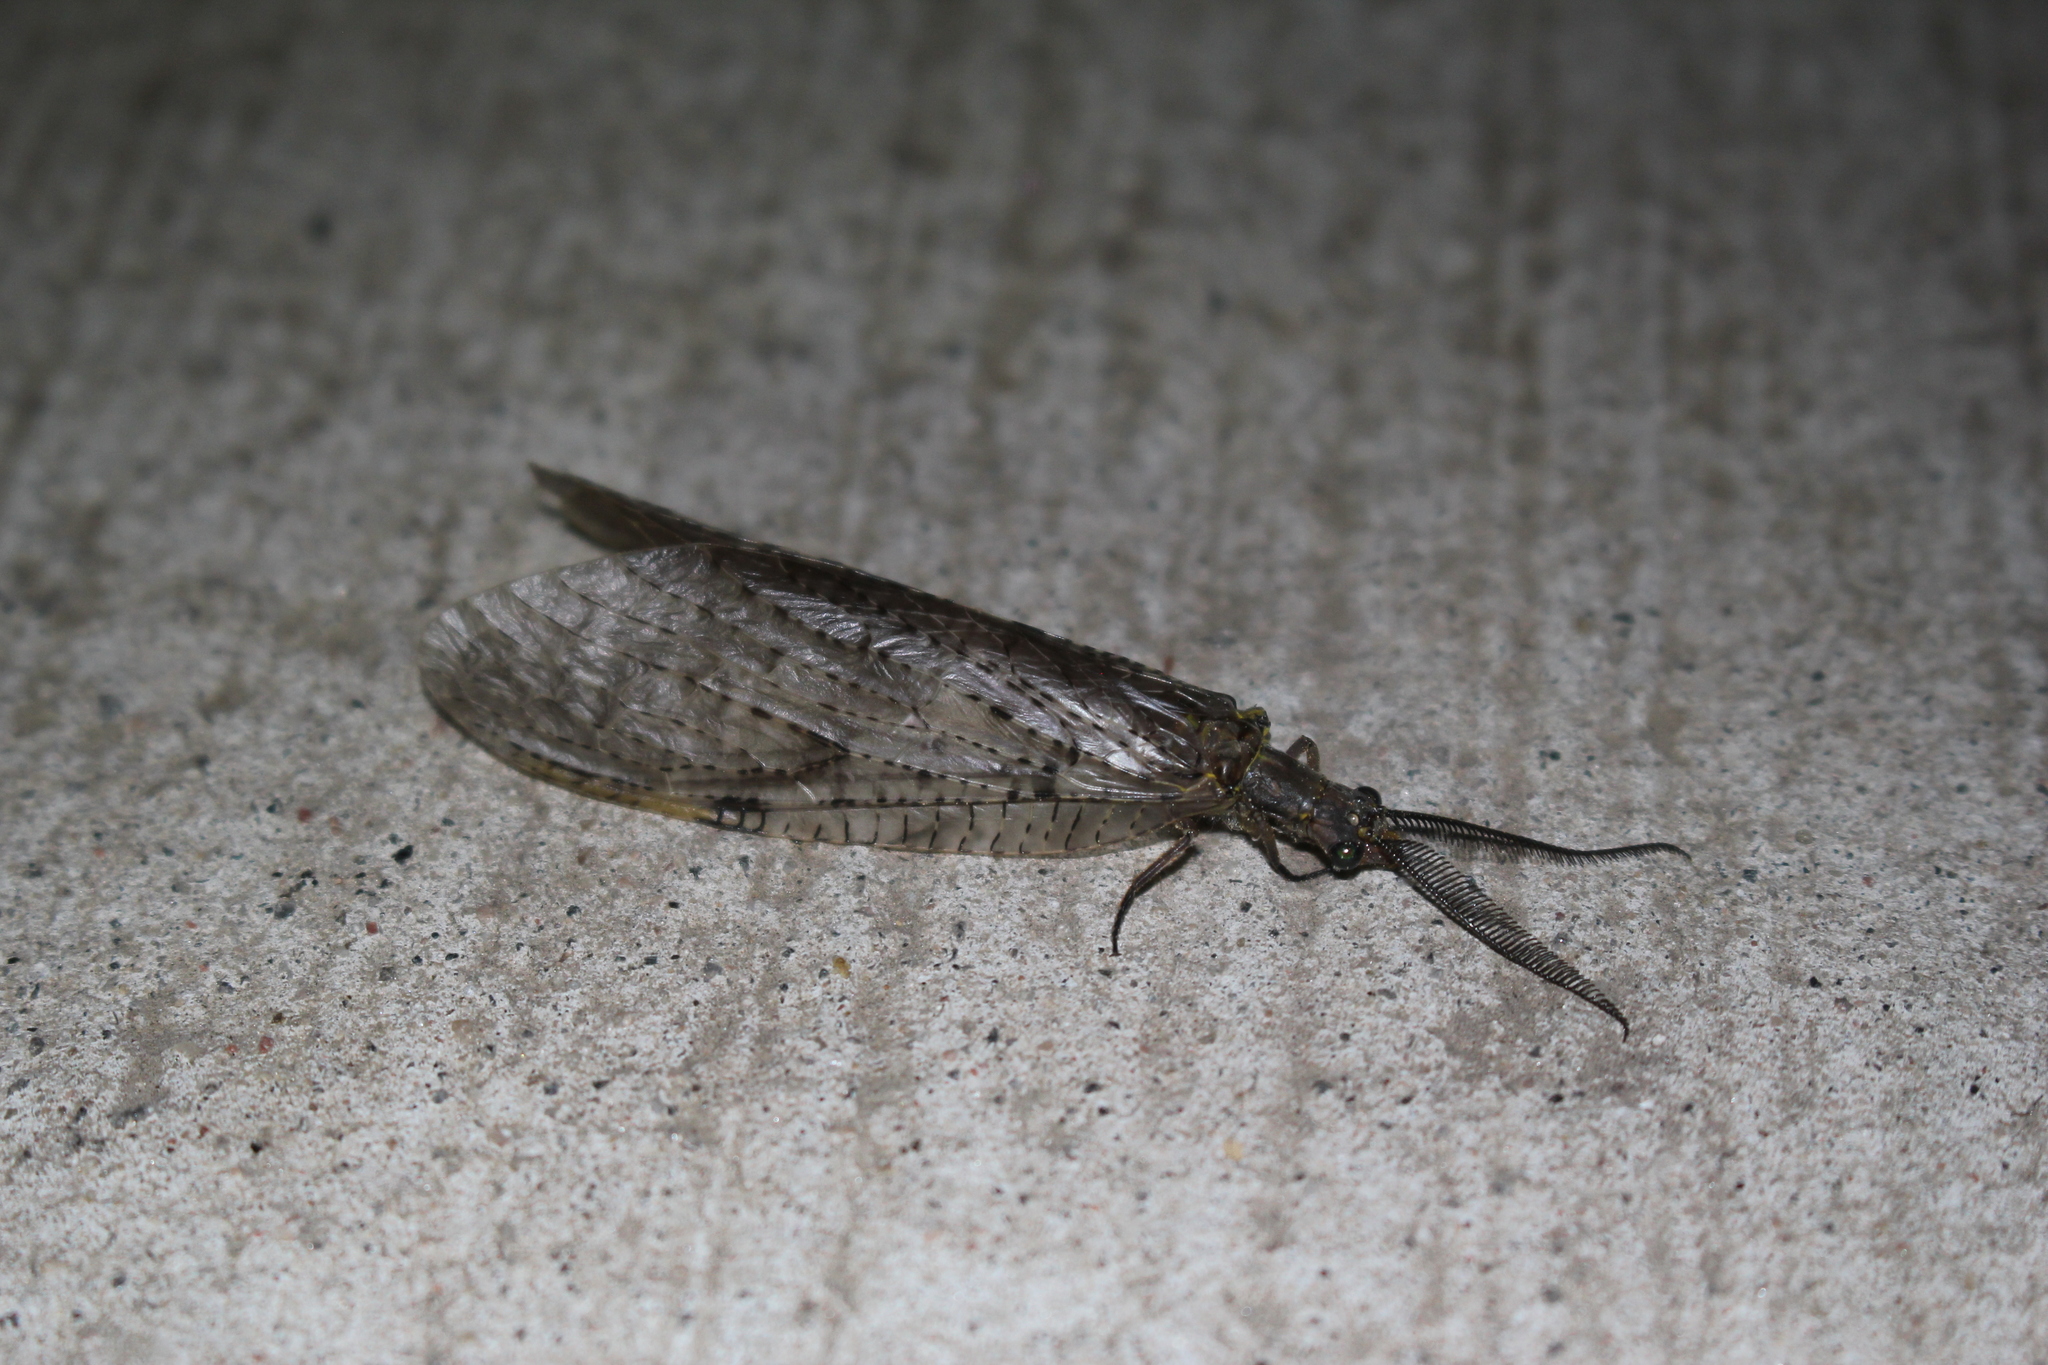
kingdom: Animalia
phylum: Arthropoda
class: Insecta
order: Megaloptera
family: Corydalidae
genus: Chauliodes
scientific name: Chauliodes pectinicornis
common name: Summer fishfly
